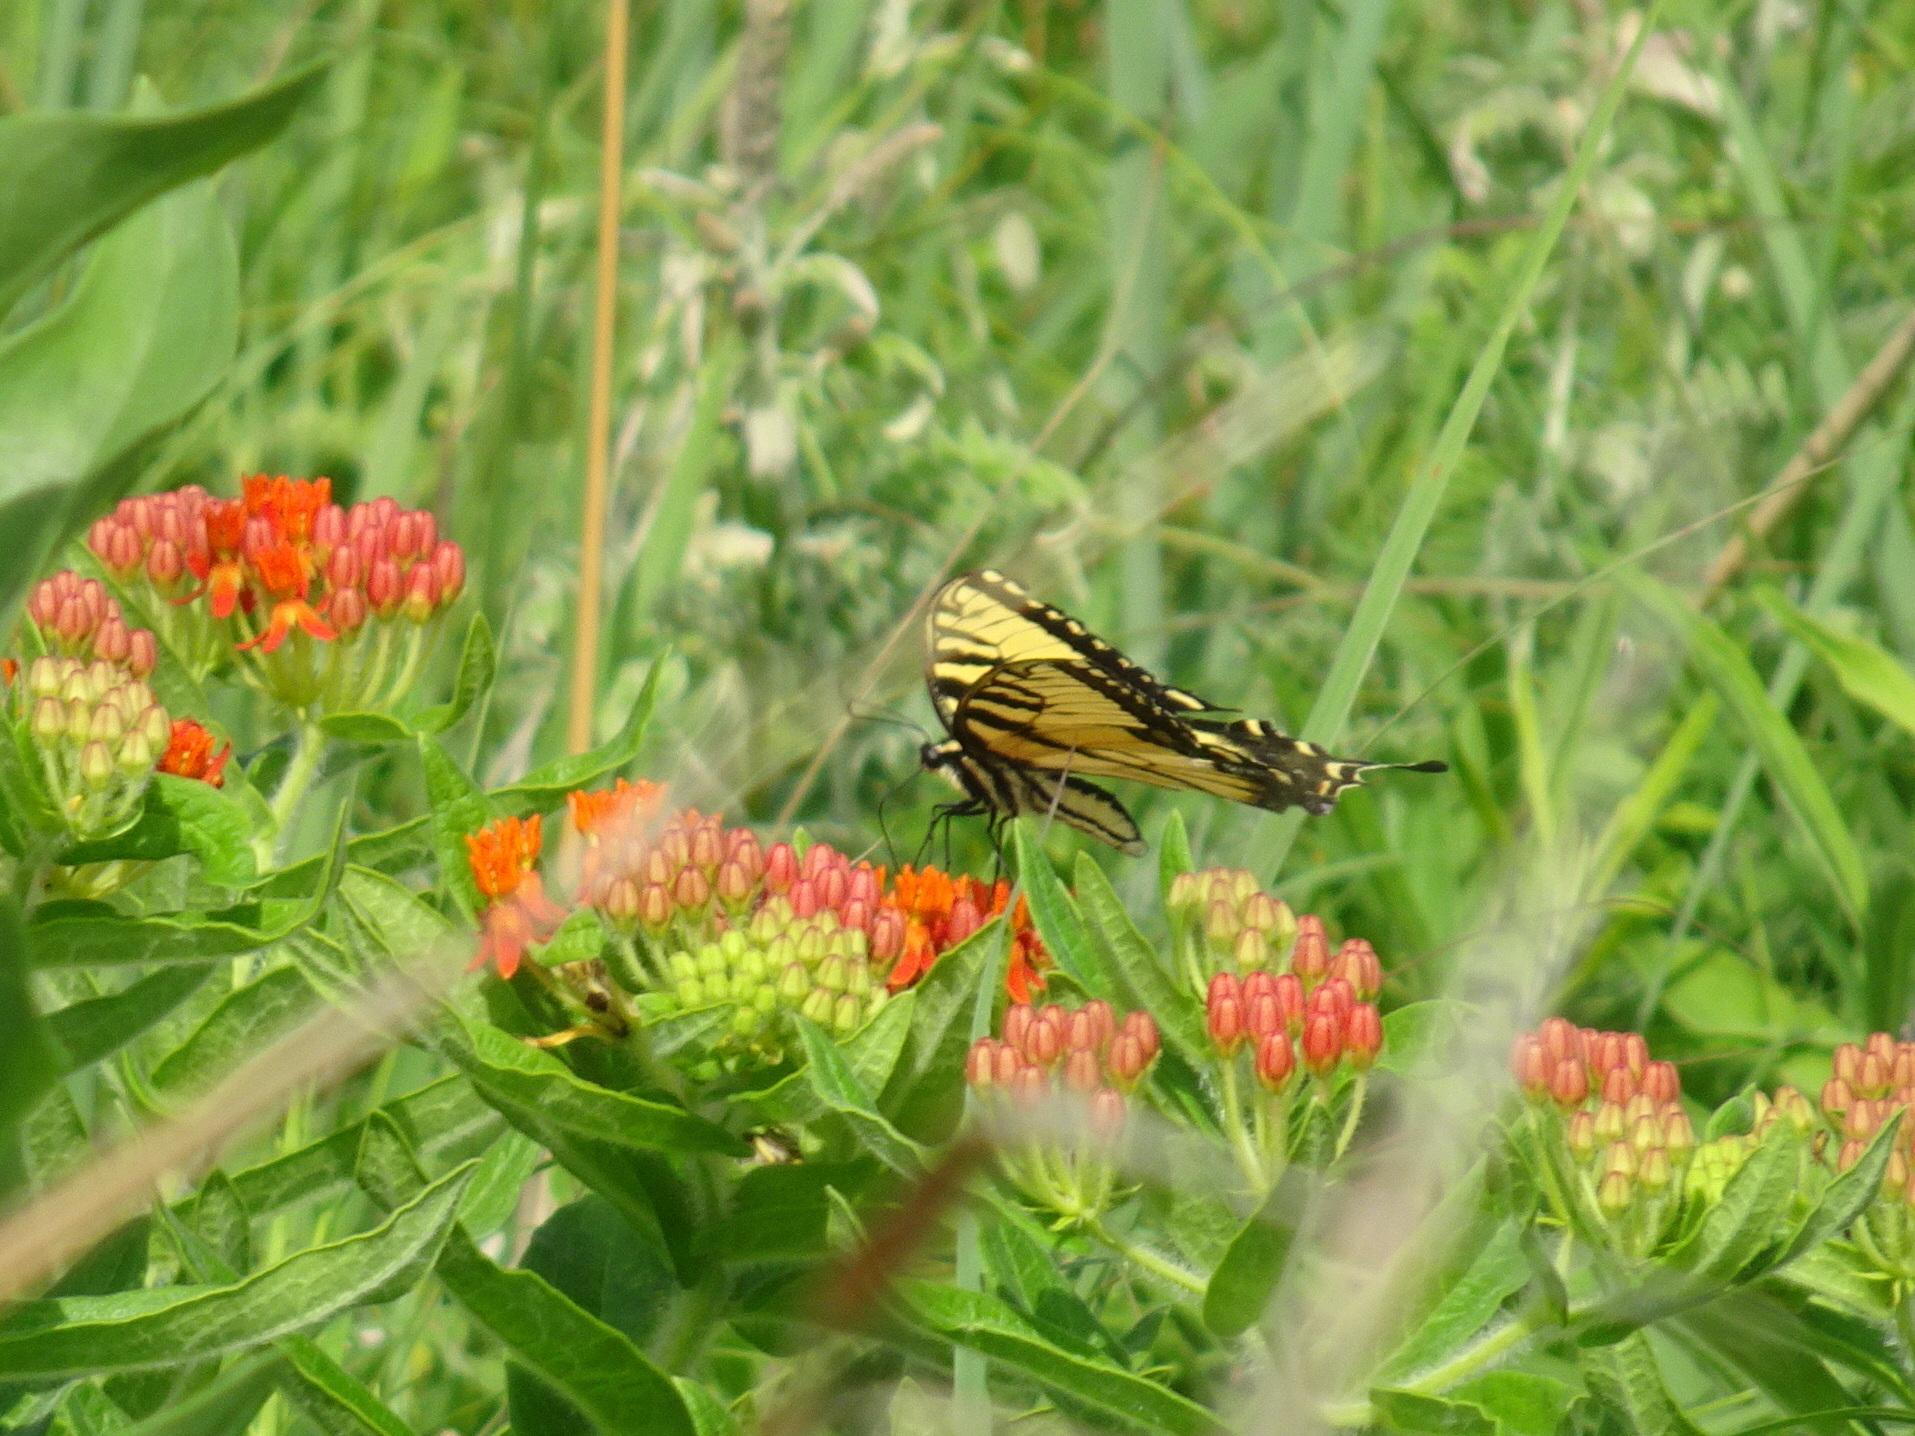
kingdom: Animalia
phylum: Arthropoda
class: Insecta
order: Lepidoptera
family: Papilionidae
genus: Papilio
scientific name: Papilio glaucus
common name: Tiger swallowtail
